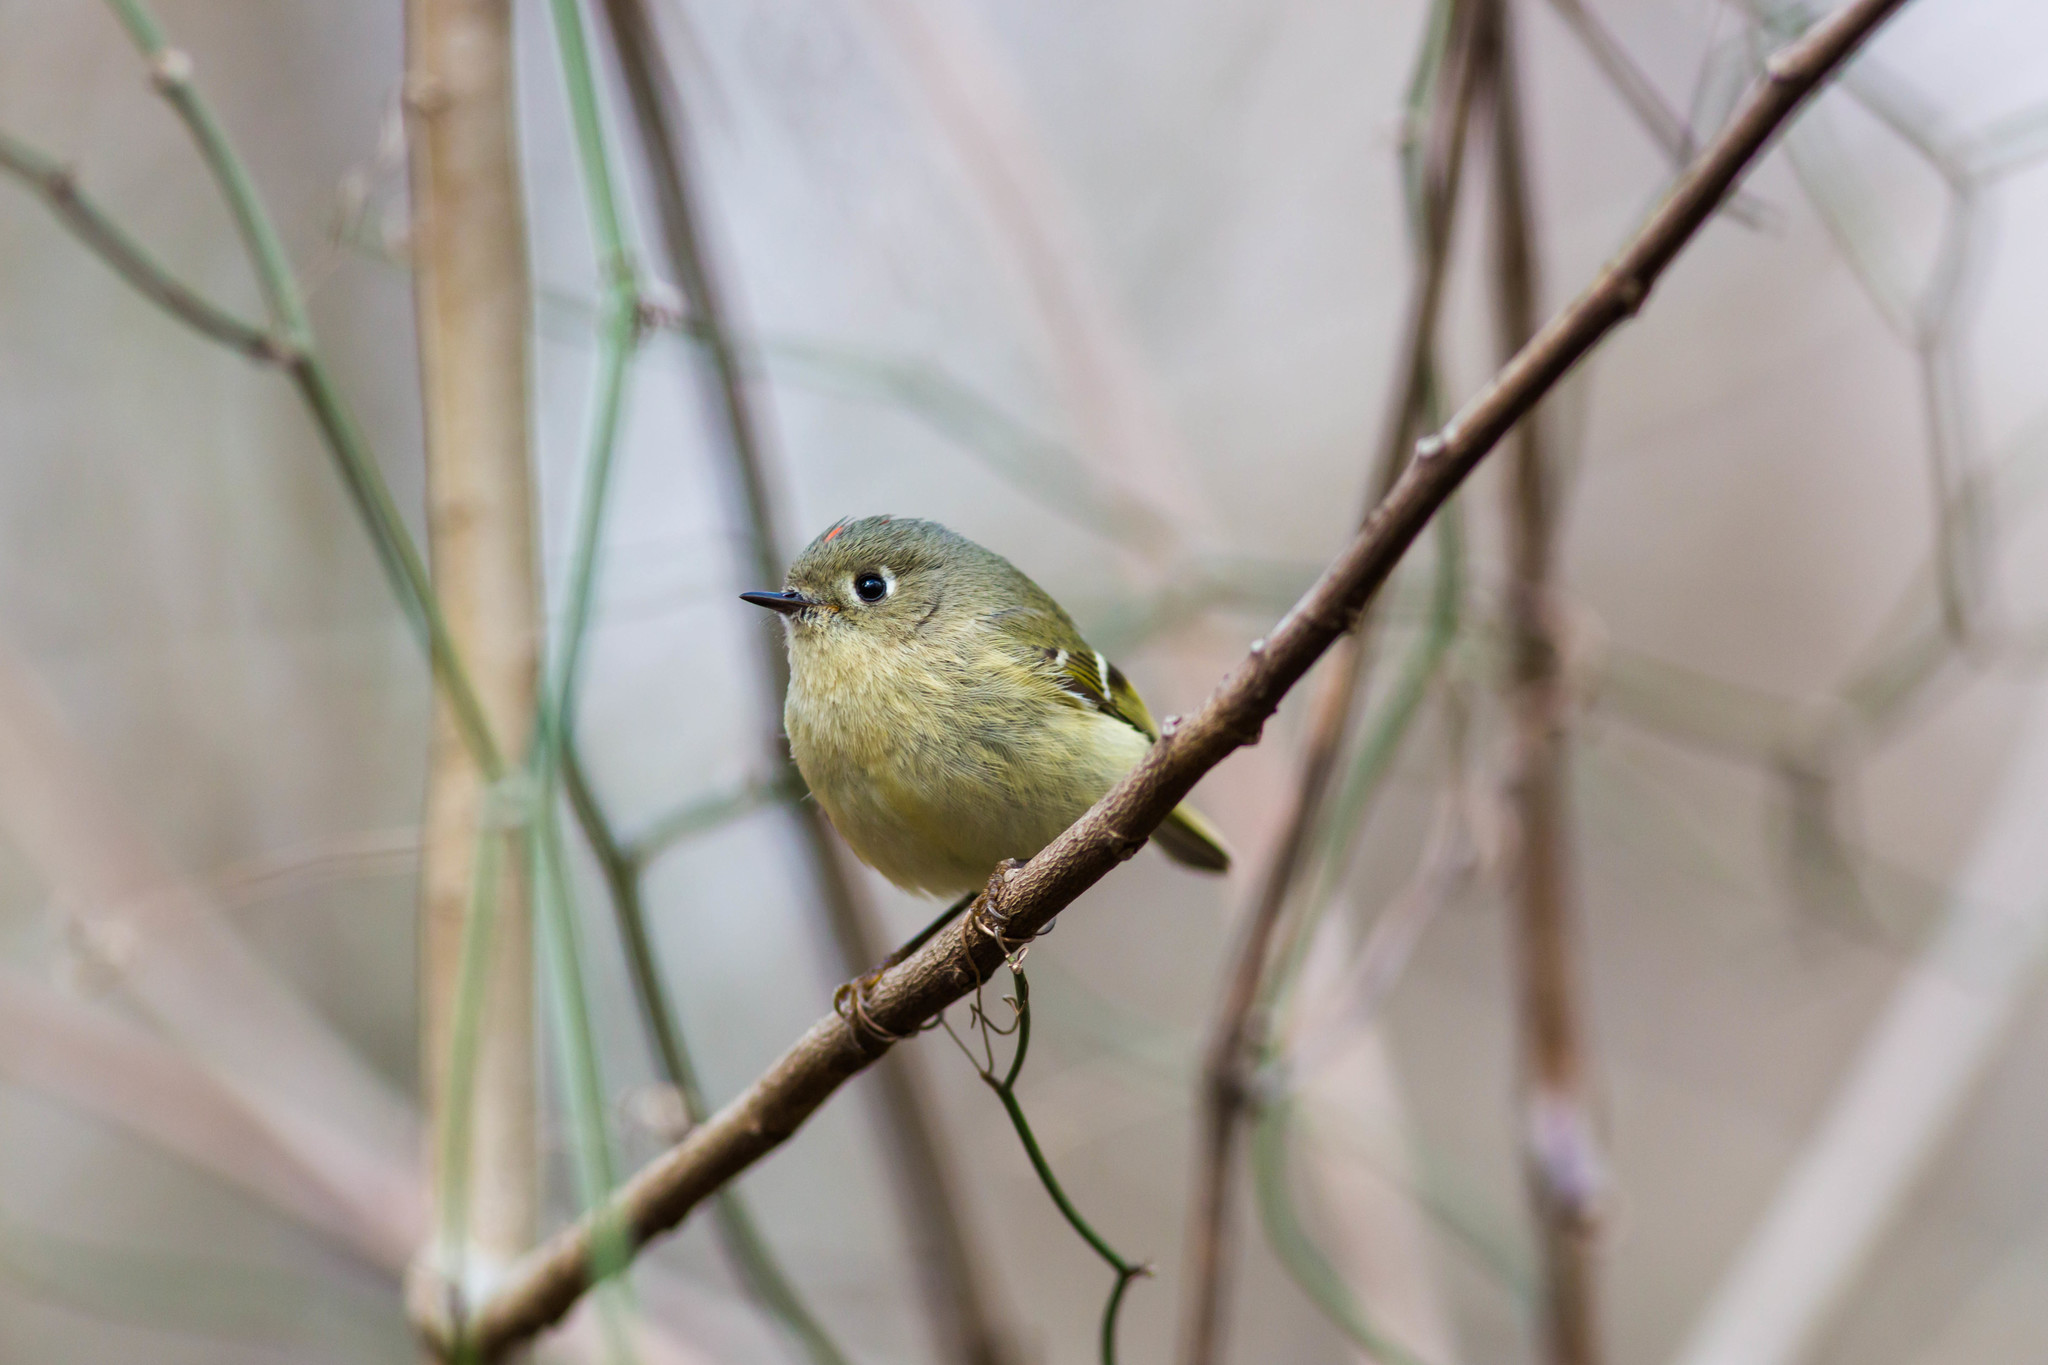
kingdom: Animalia
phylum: Chordata
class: Aves
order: Passeriformes
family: Regulidae
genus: Regulus
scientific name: Regulus calendula
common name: Ruby-crowned kinglet
